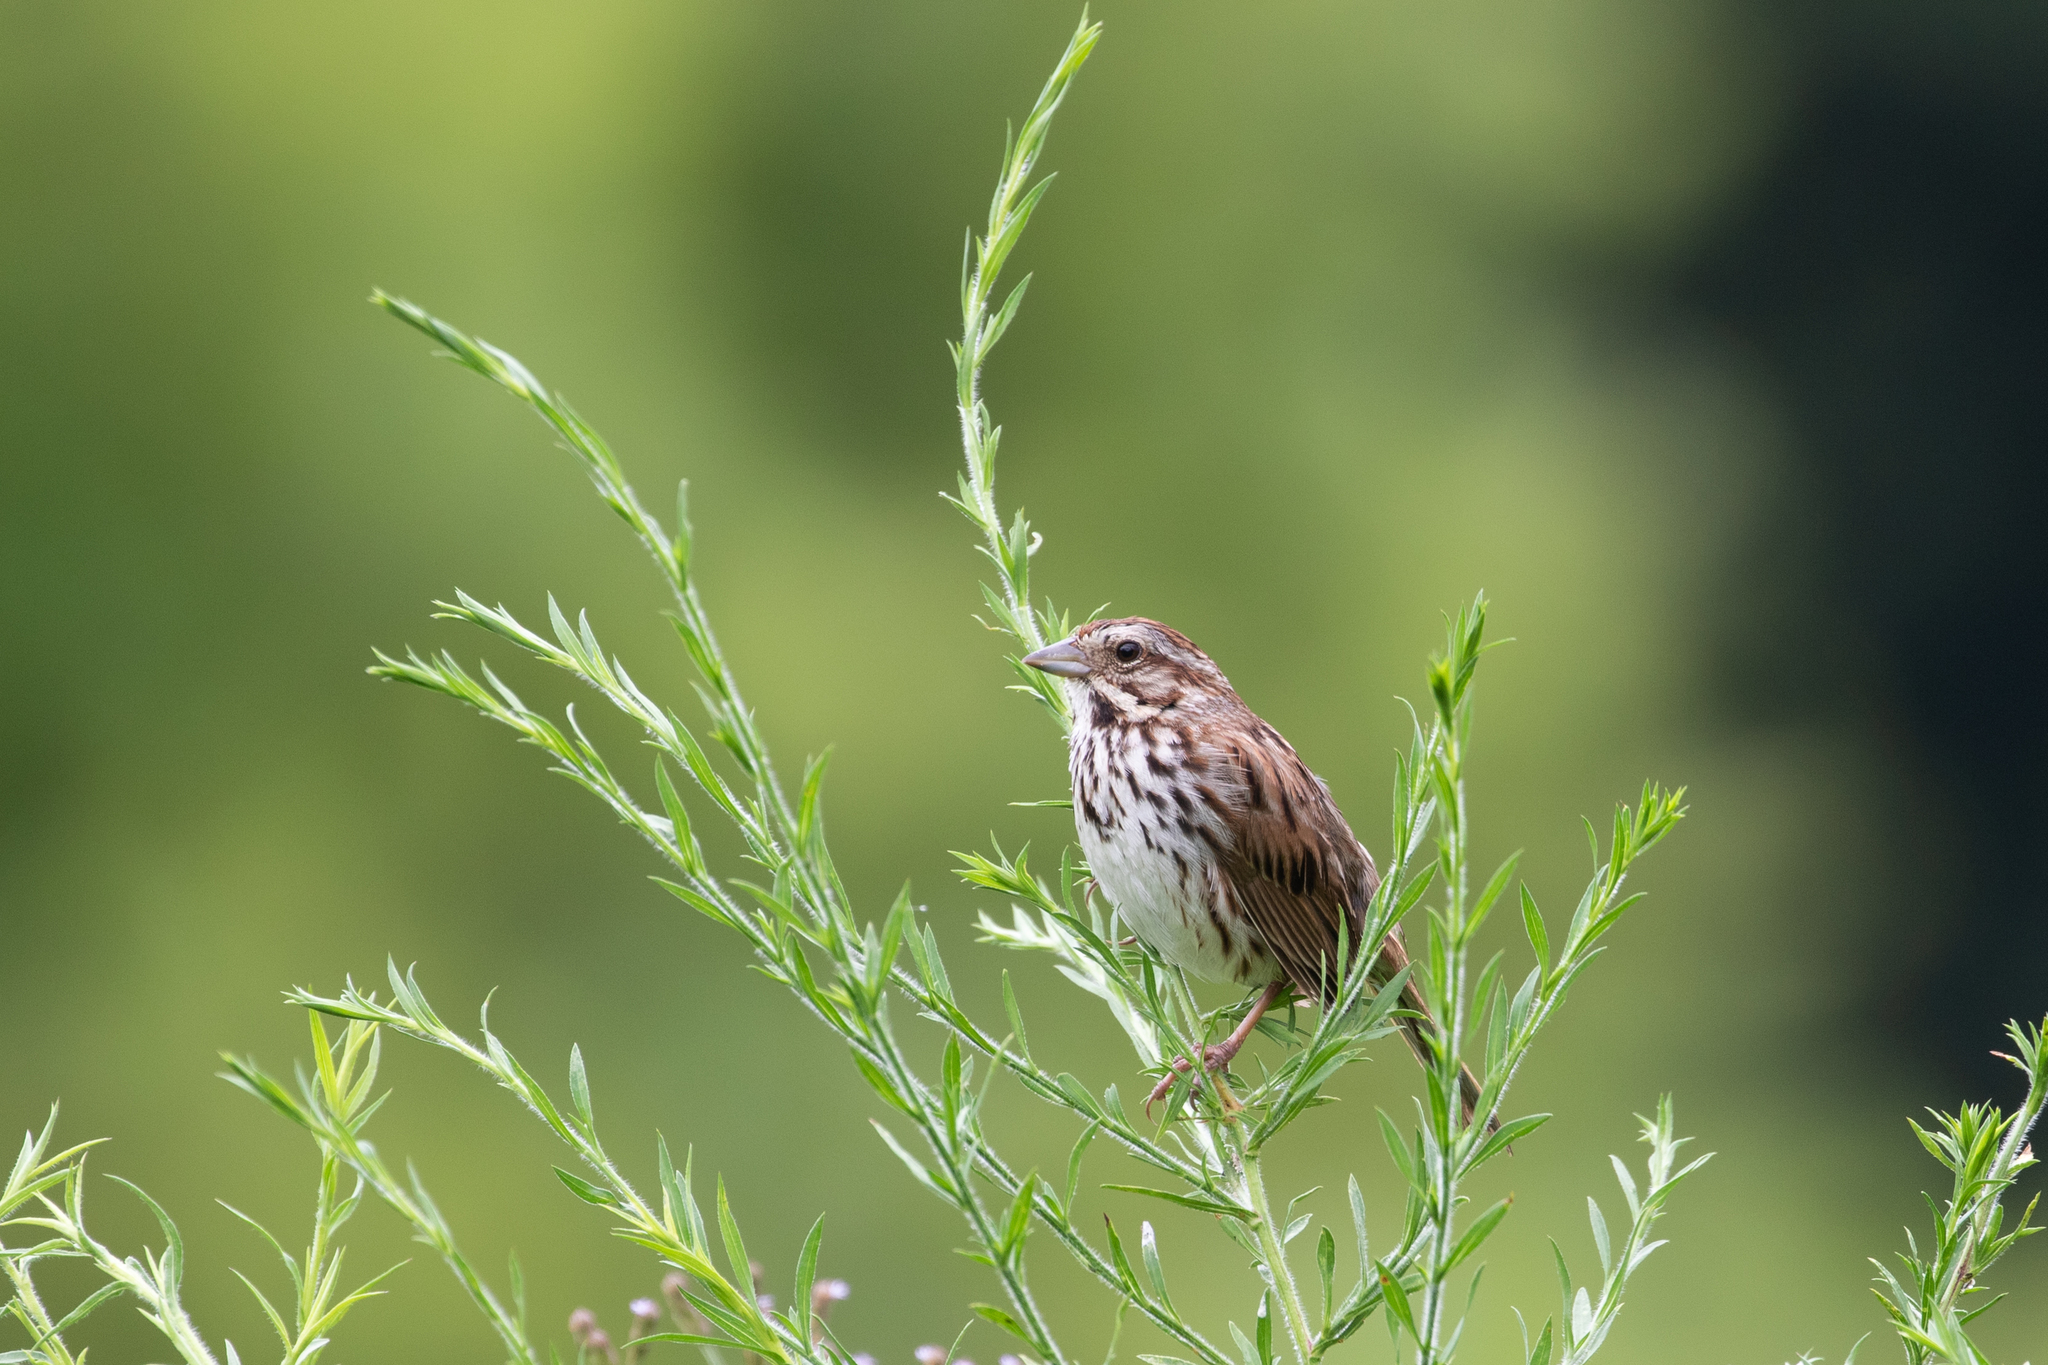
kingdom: Animalia
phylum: Chordata
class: Aves
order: Passeriformes
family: Passerellidae
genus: Melospiza
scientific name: Melospiza melodia
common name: Song sparrow
